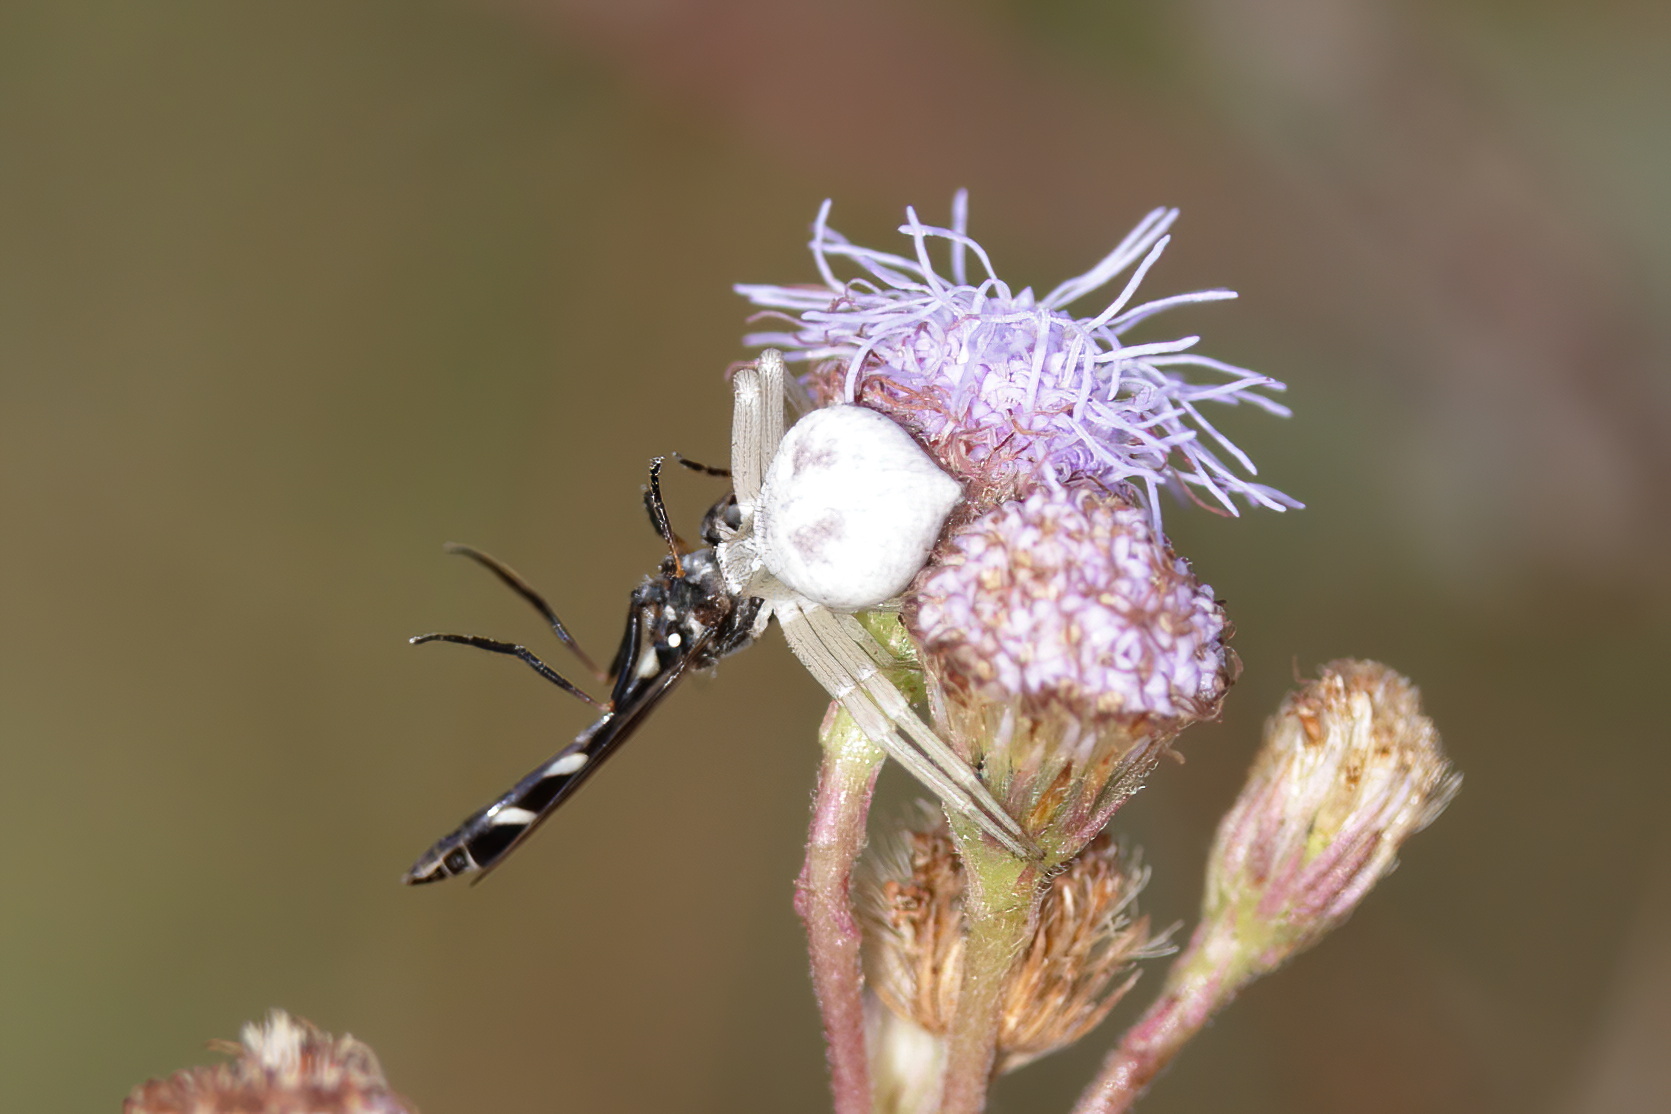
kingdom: Animalia
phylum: Arthropoda
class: Arachnida
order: Araneae
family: Thomisidae
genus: Misumenoides
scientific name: Misumenoides formosipes
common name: White-banded crab spider
